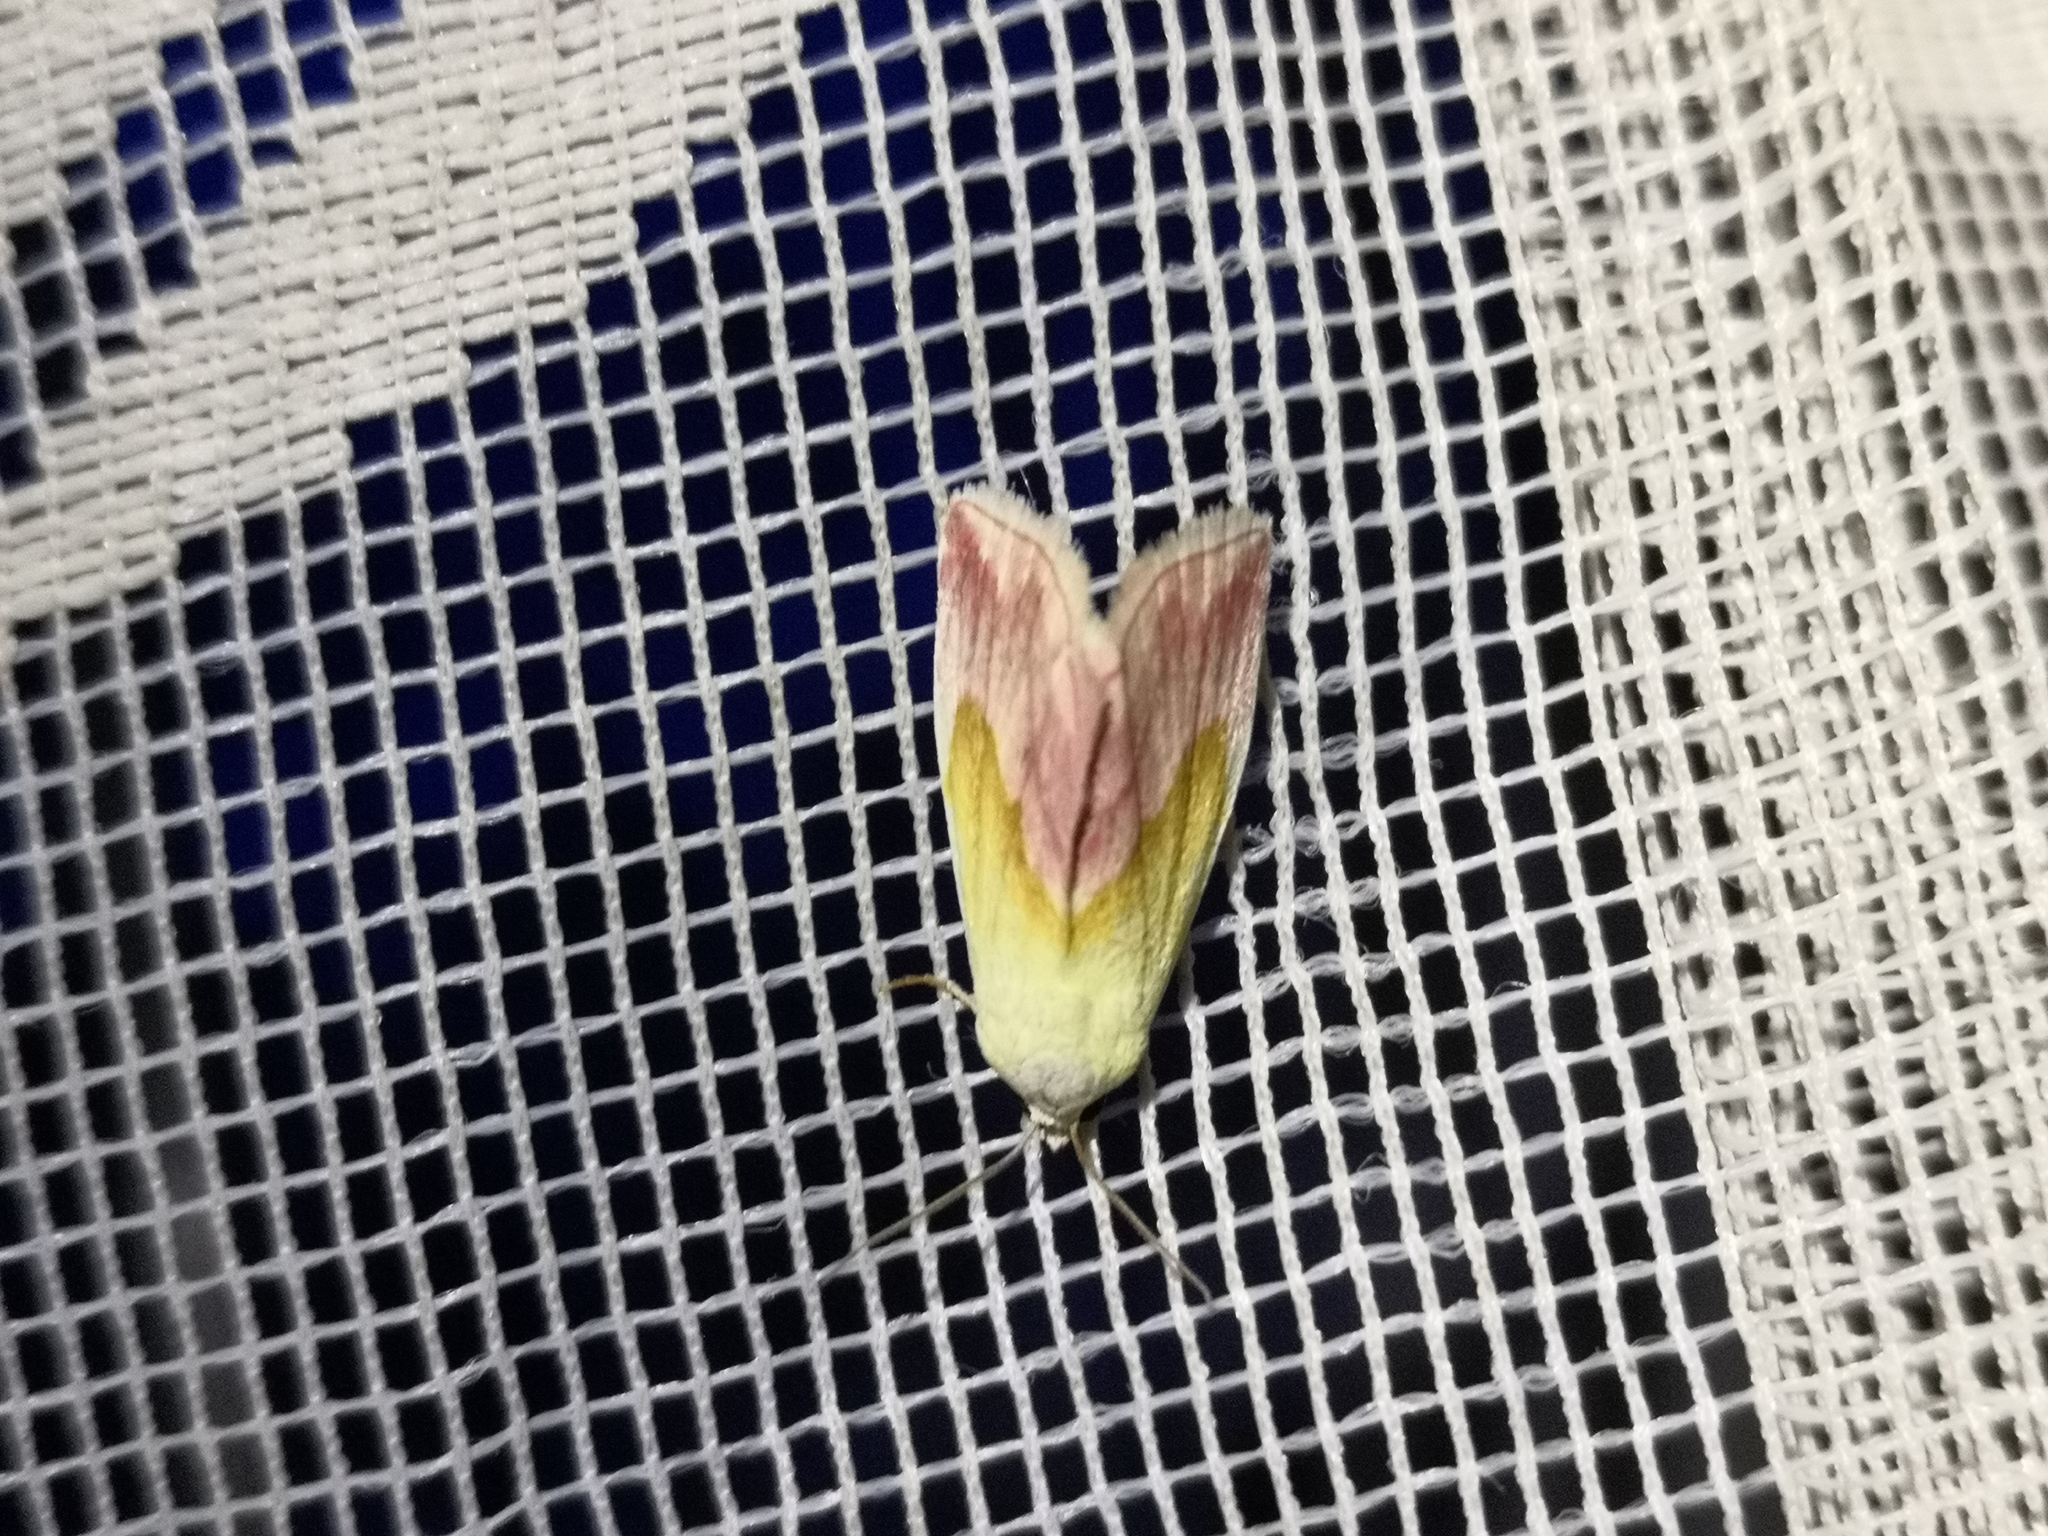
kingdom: Animalia
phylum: Arthropoda
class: Insecta
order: Lepidoptera
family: Noctuidae
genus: Eublemma
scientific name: Eublemma purpurina
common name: Beautiful marbled
